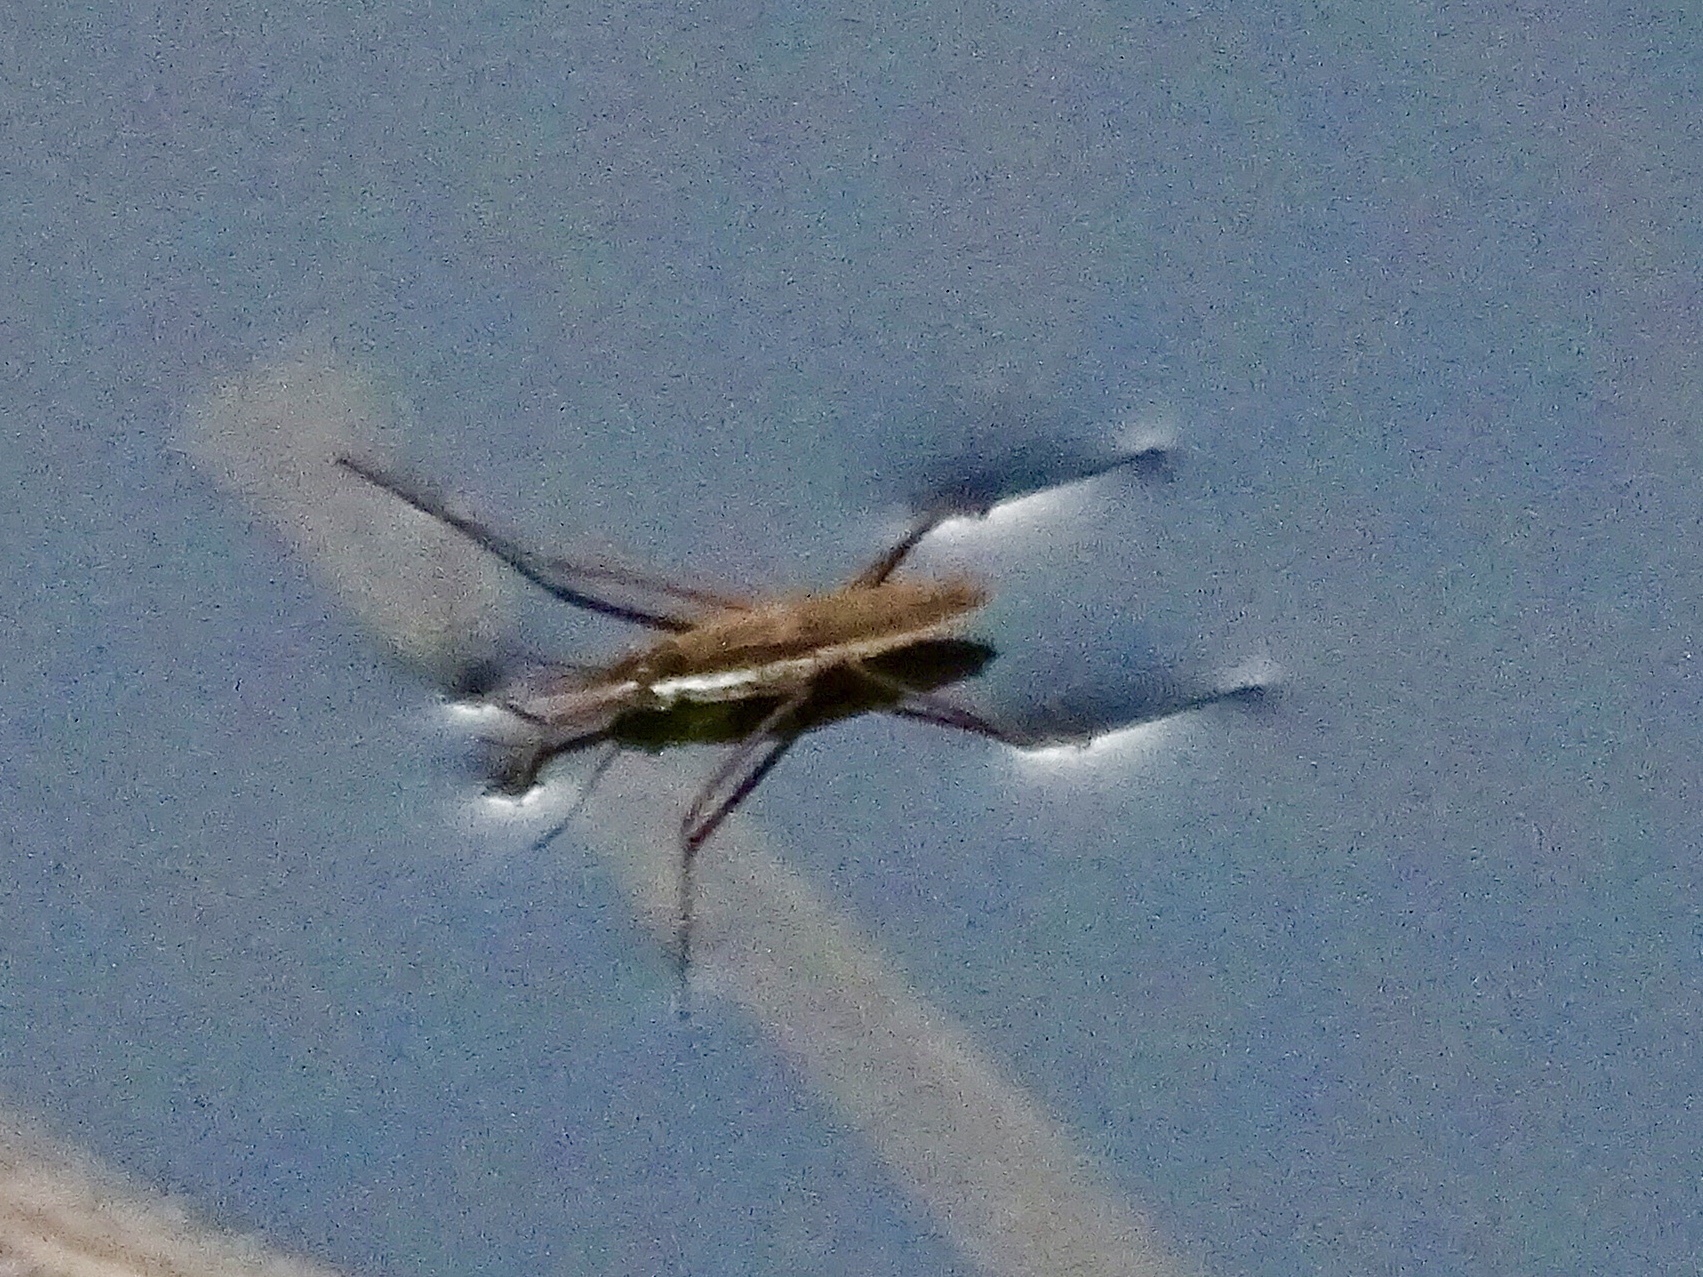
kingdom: Animalia
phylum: Arthropoda
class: Insecta
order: Hemiptera
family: Gerridae
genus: Aquarius
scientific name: Aquarius remigis
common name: Common water strider
